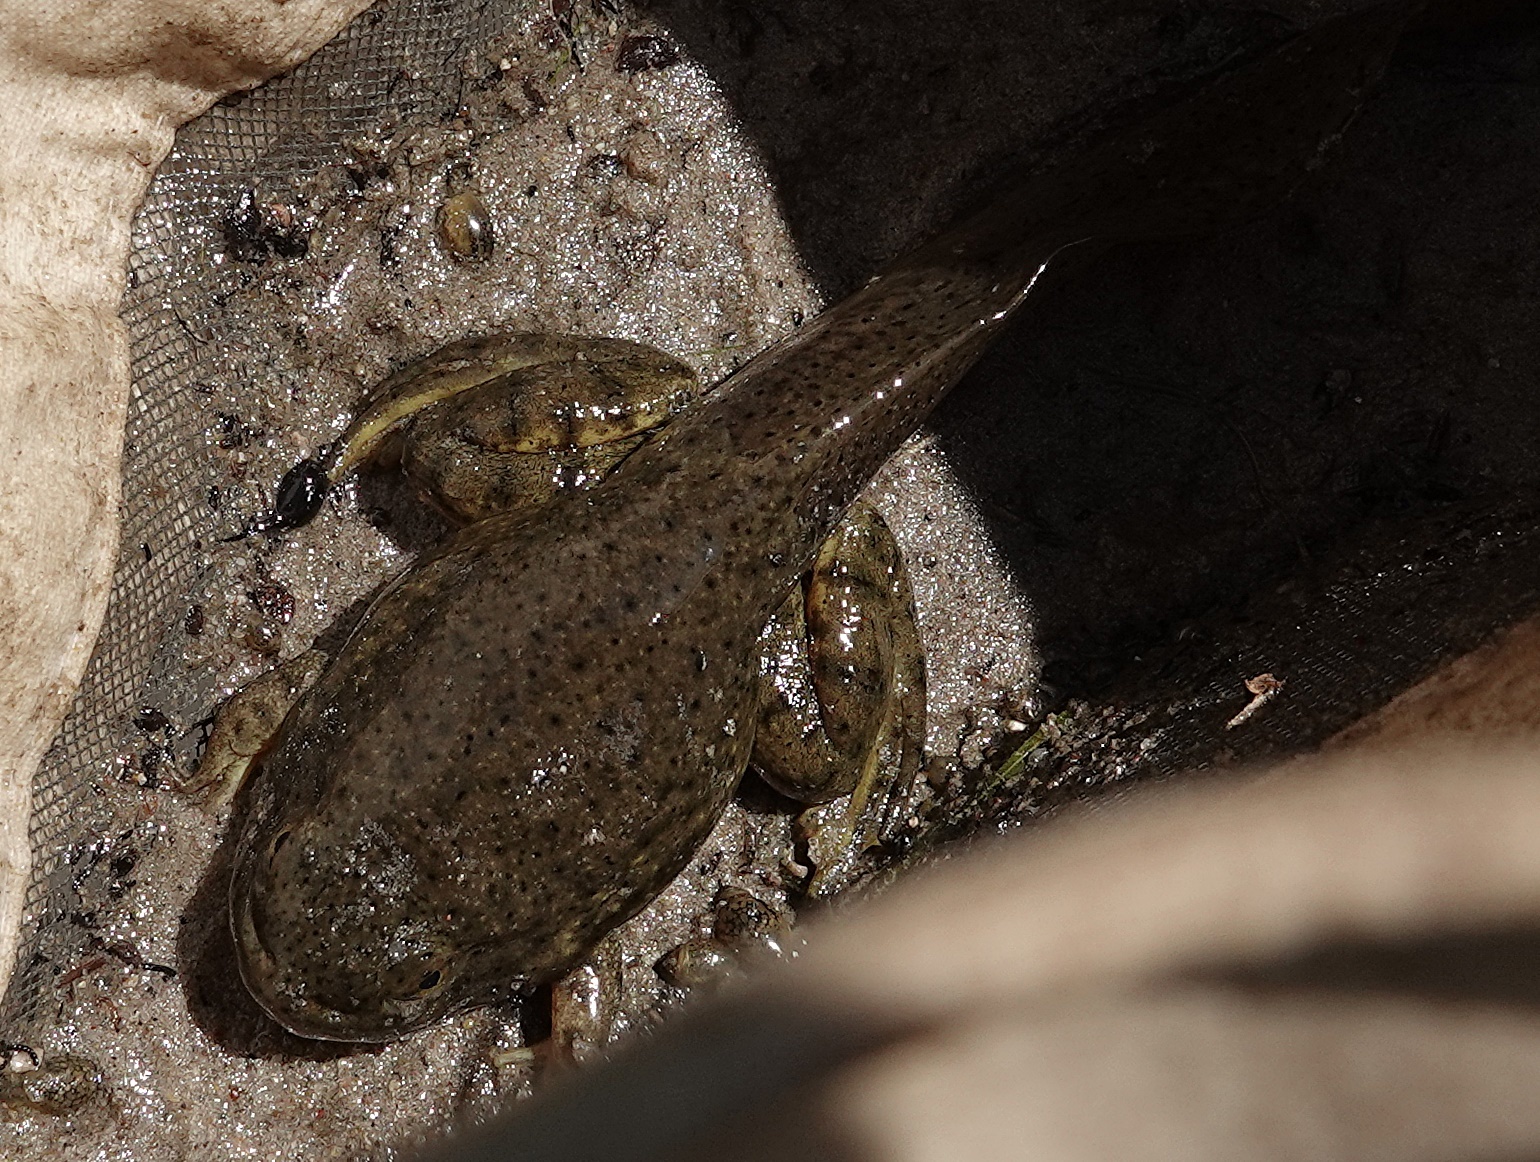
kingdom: Animalia
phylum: Chordata
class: Amphibia
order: Anura
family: Ranidae
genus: Lithobates
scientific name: Lithobates catesbeianus
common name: American bullfrog
